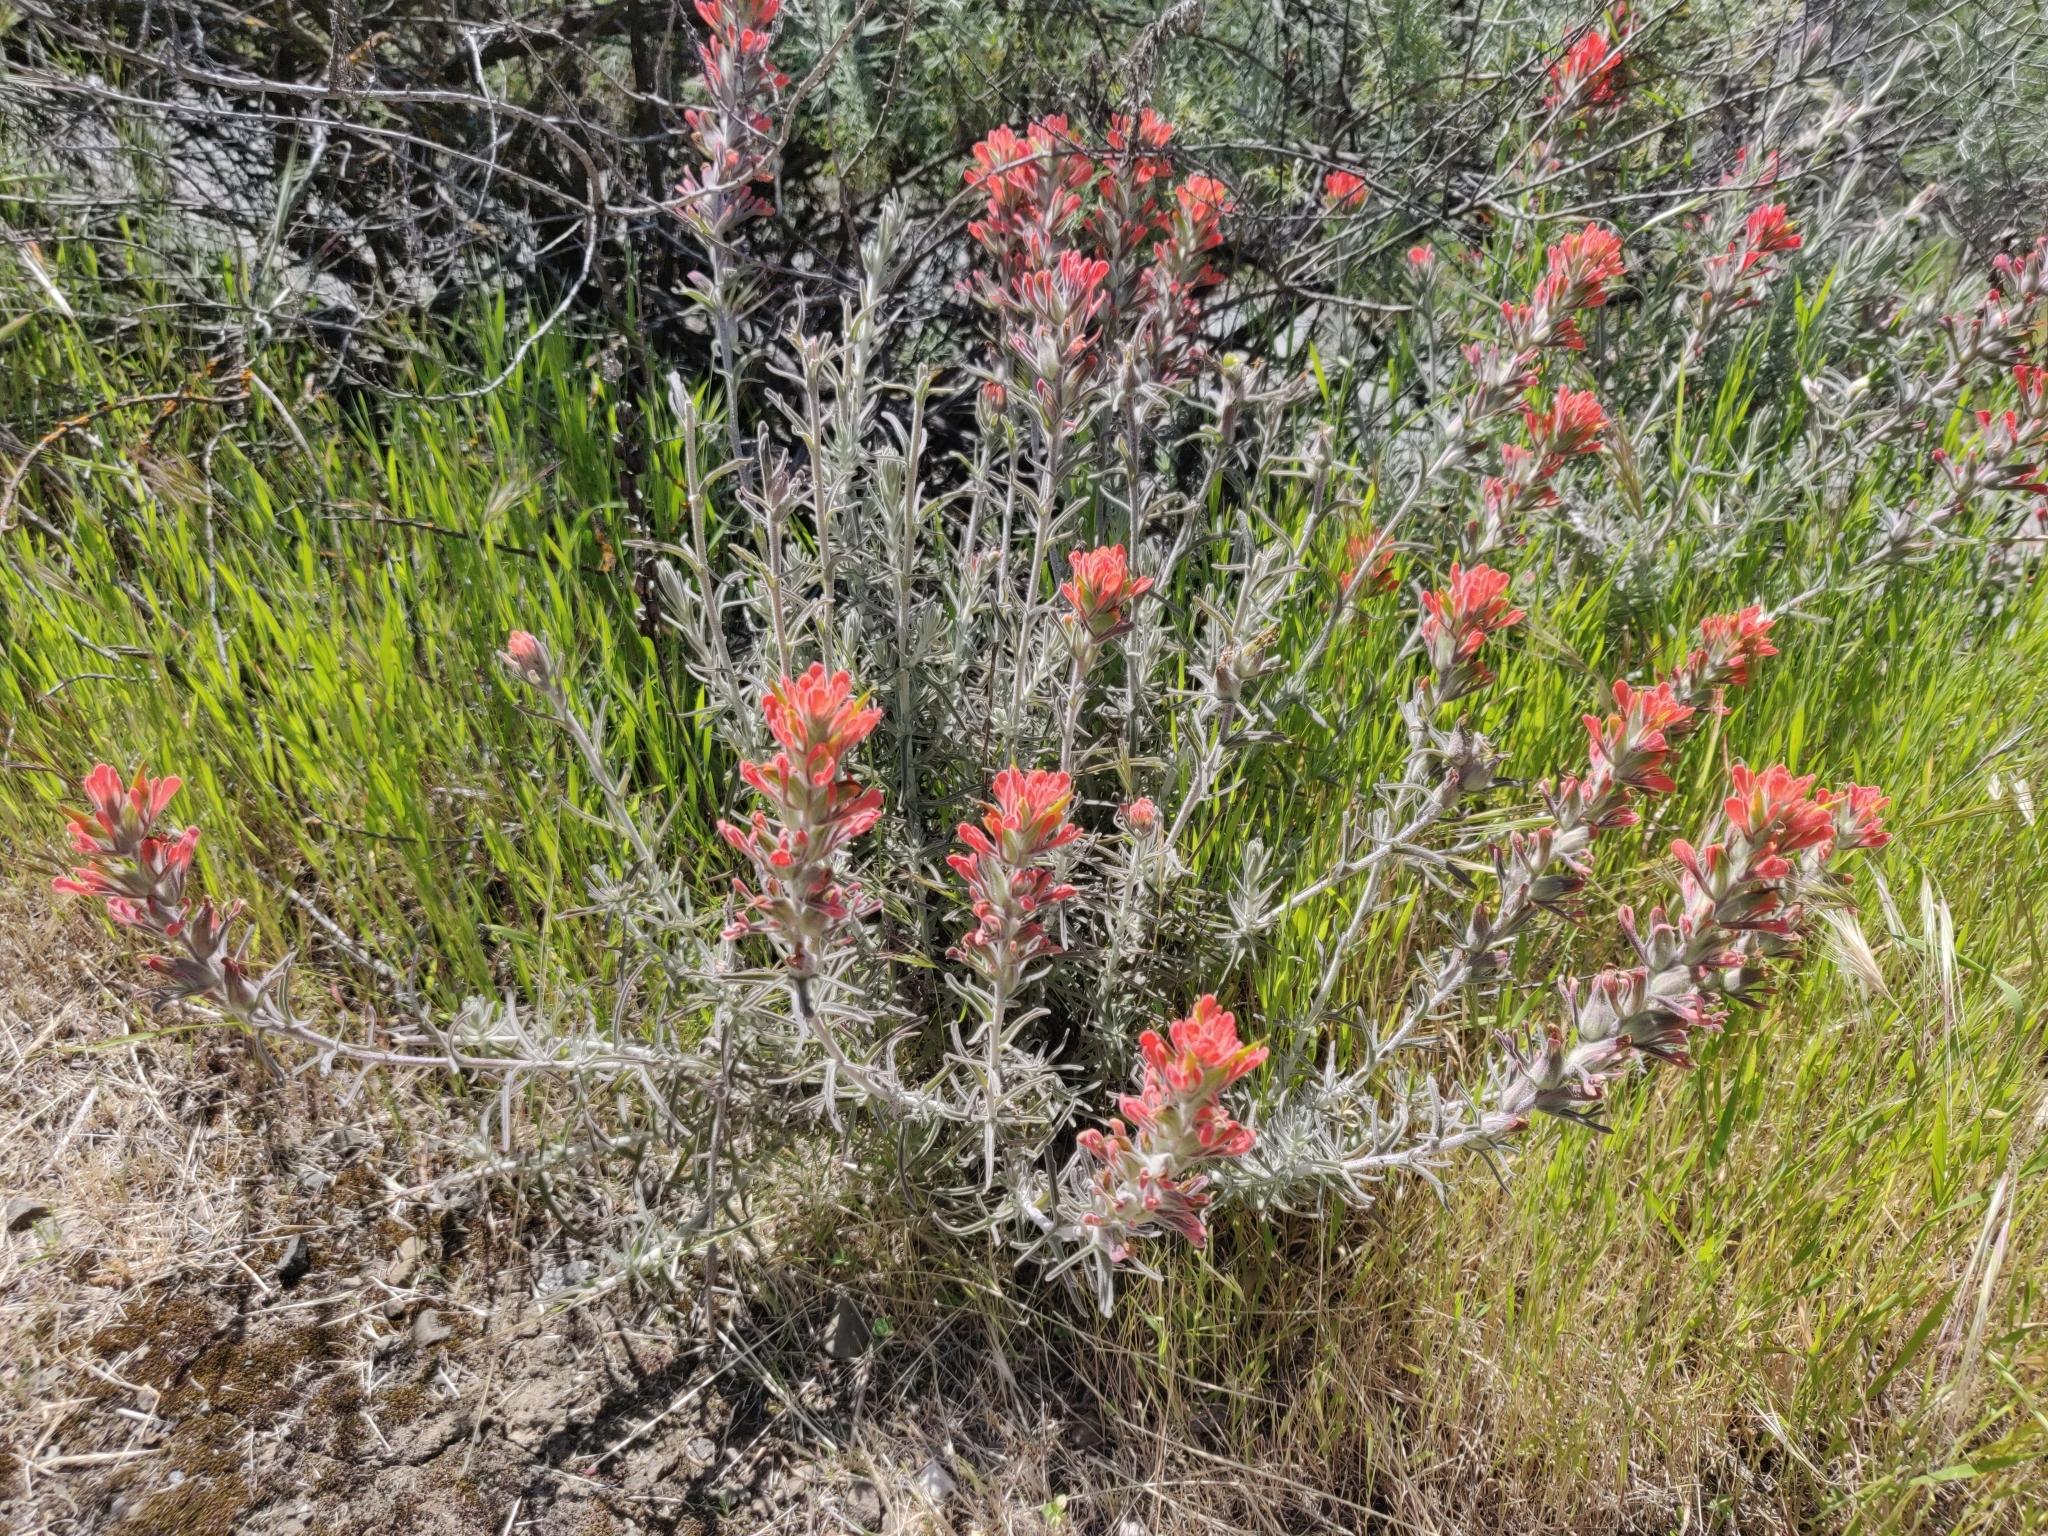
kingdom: Plantae
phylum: Tracheophyta
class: Magnoliopsida
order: Lamiales
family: Orobanchaceae
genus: Castilleja
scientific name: Castilleja foliolosa
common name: Woolly indian paintbrush
